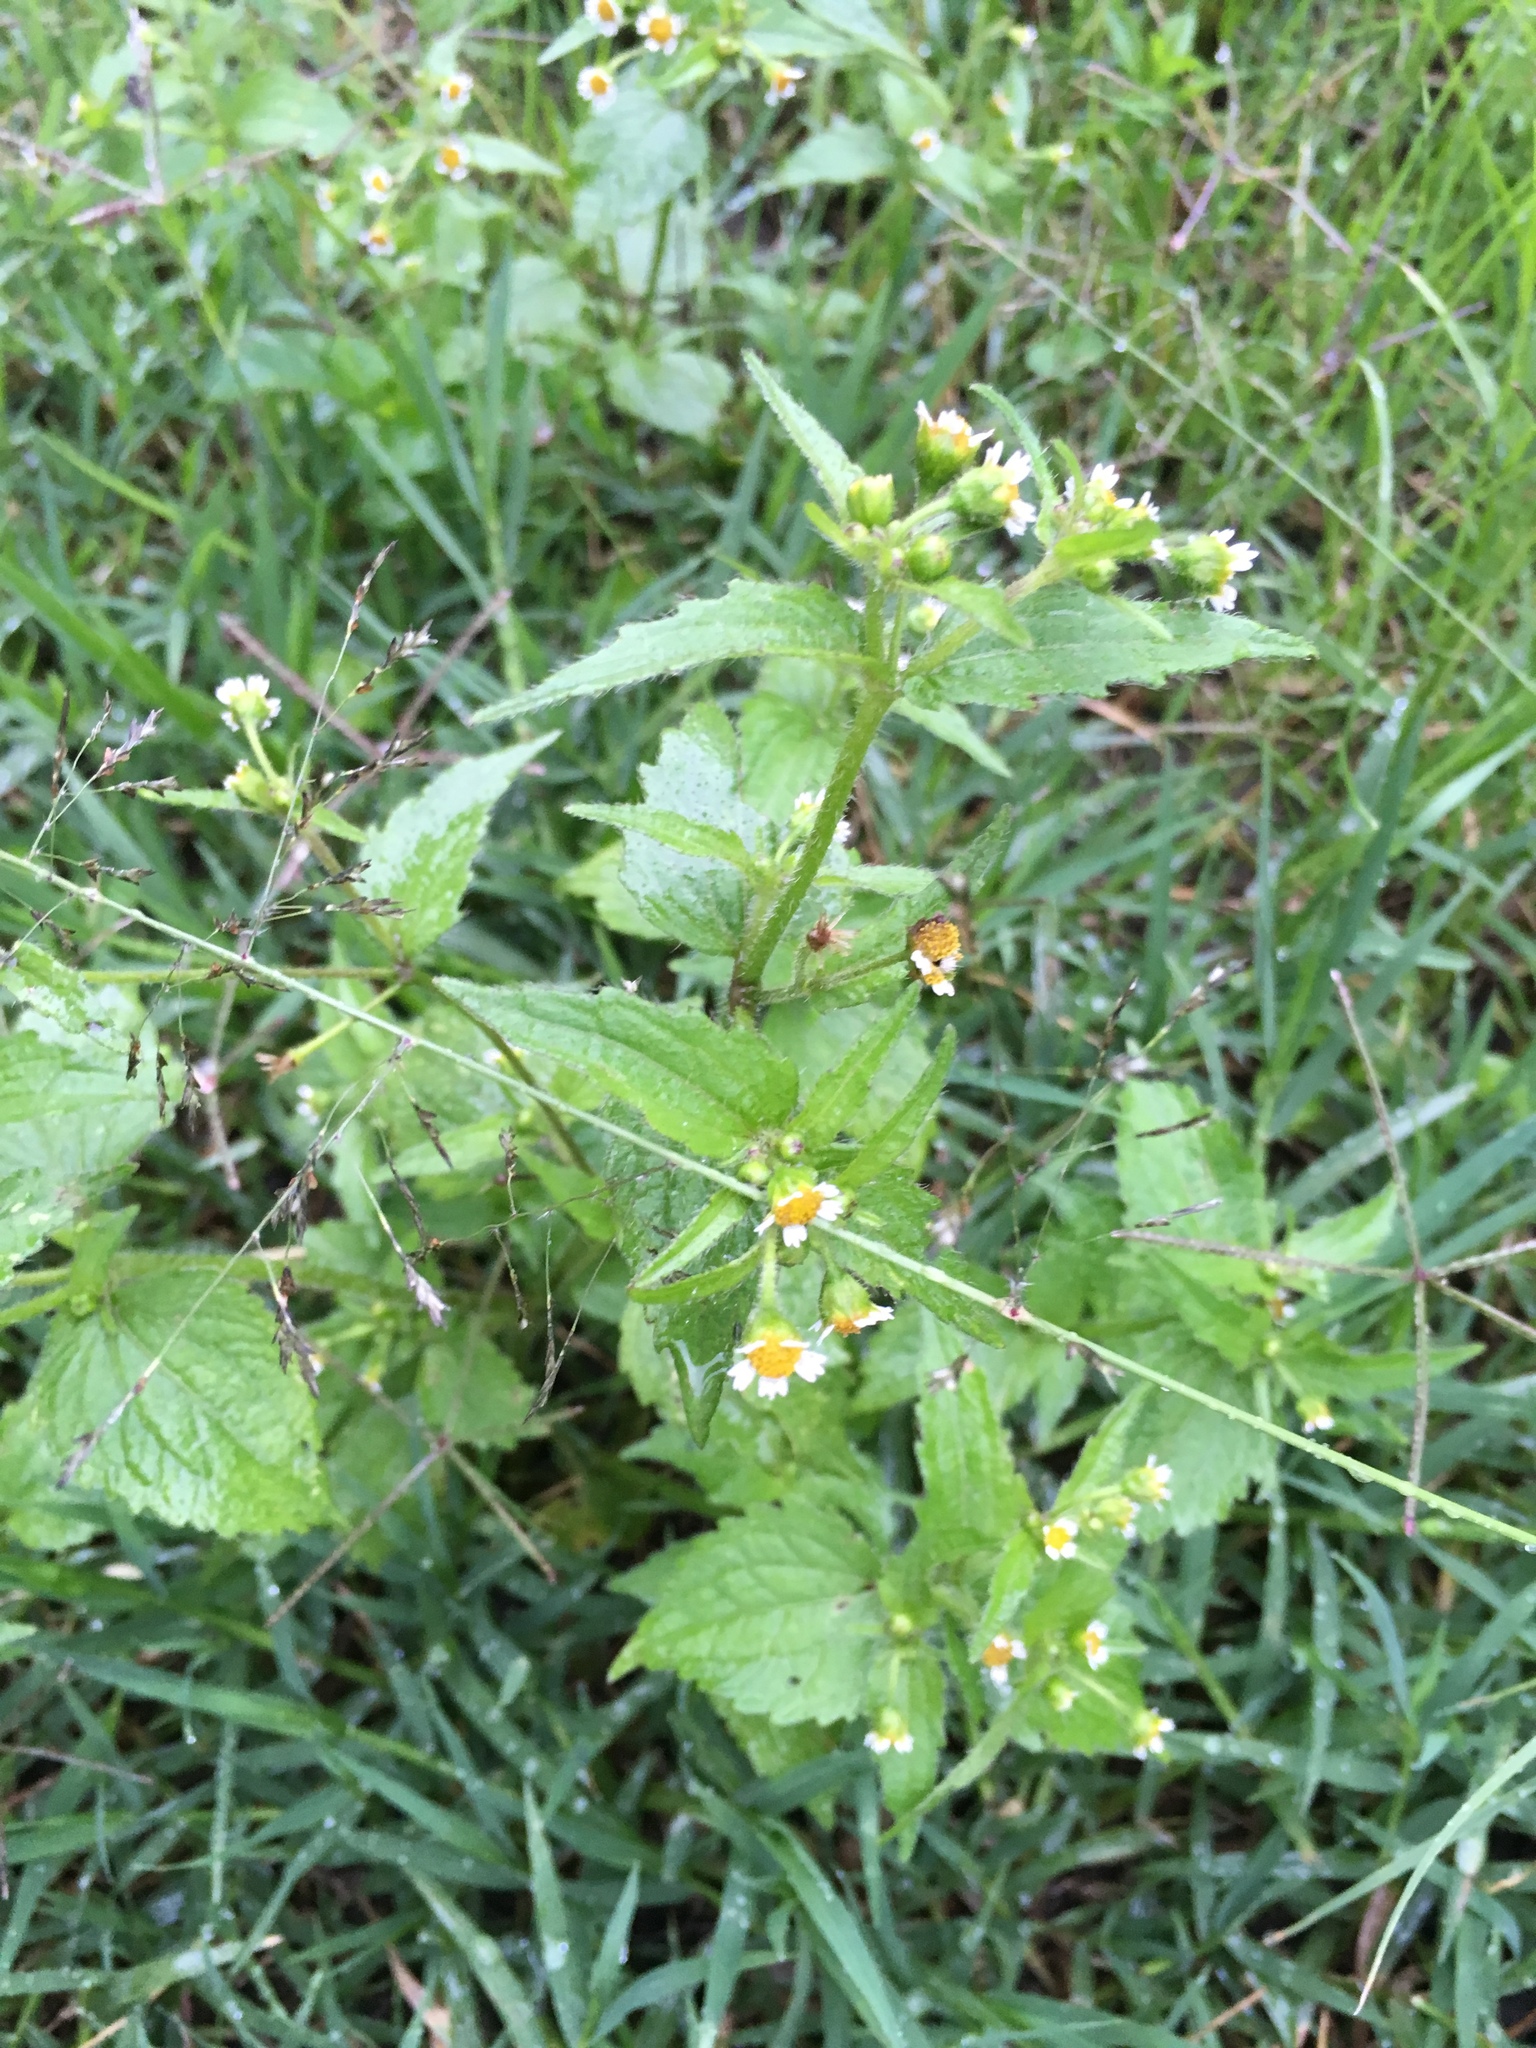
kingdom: Plantae
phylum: Tracheophyta
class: Magnoliopsida
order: Asterales
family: Asteraceae
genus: Galinsoga
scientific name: Galinsoga quadriradiata
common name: Shaggy soldier
